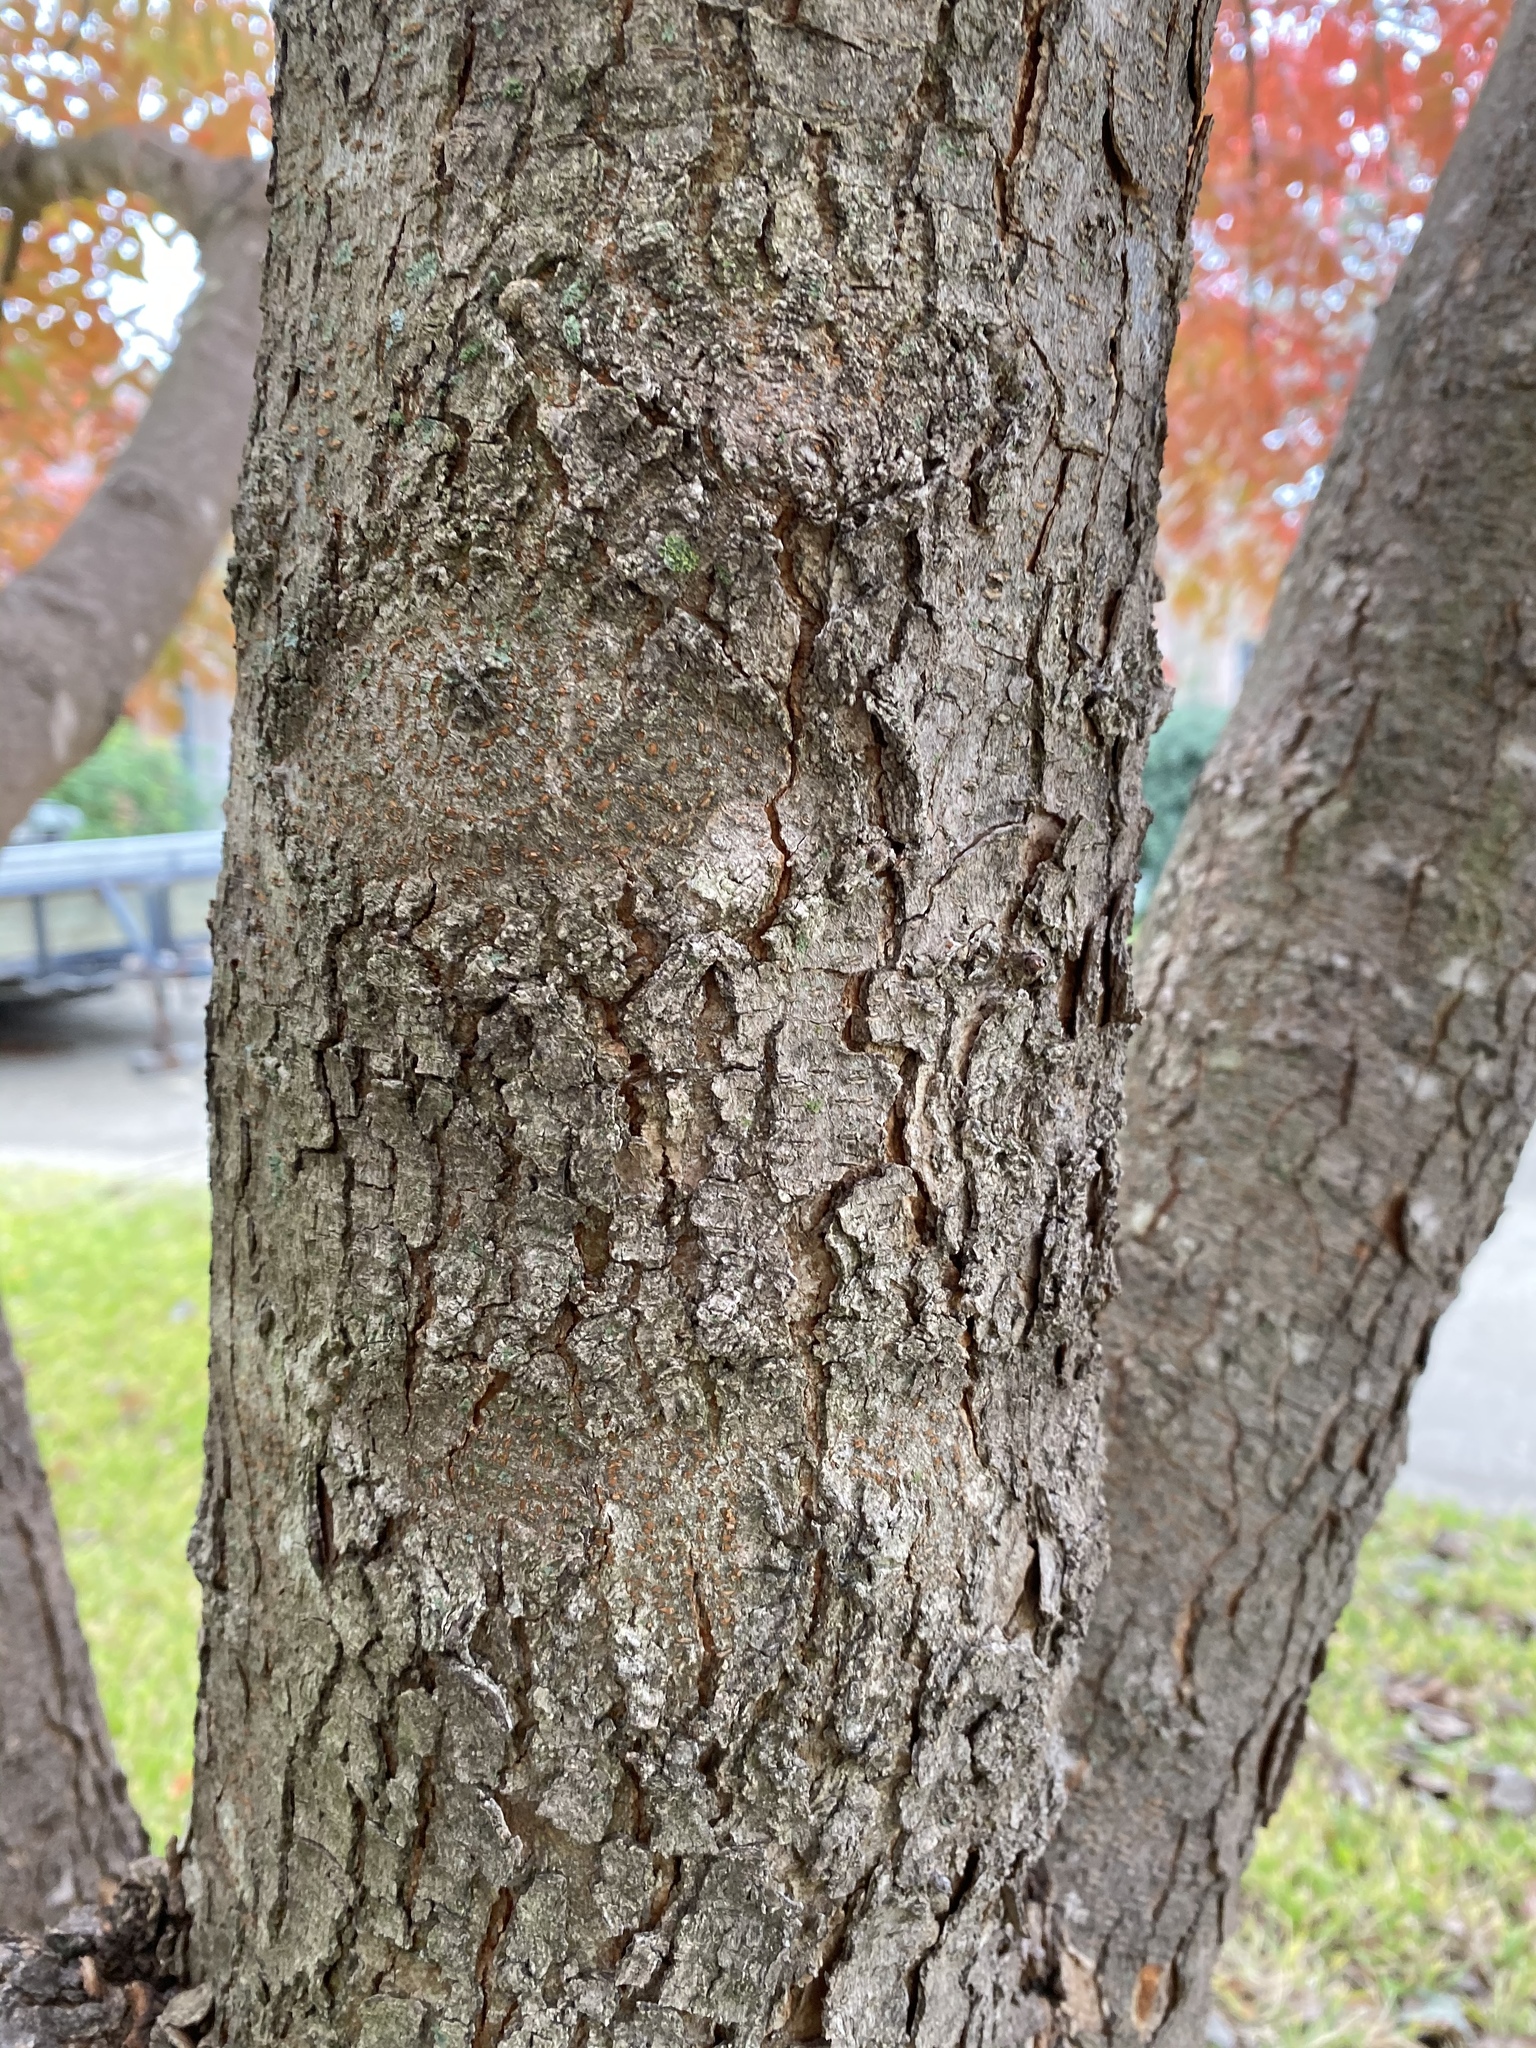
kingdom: Plantae
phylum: Tracheophyta
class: Magnoliopsida
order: Sapindales
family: Anacardiaceae
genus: Pistacia
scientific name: Pistacia chinensis
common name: Chinese pistache
